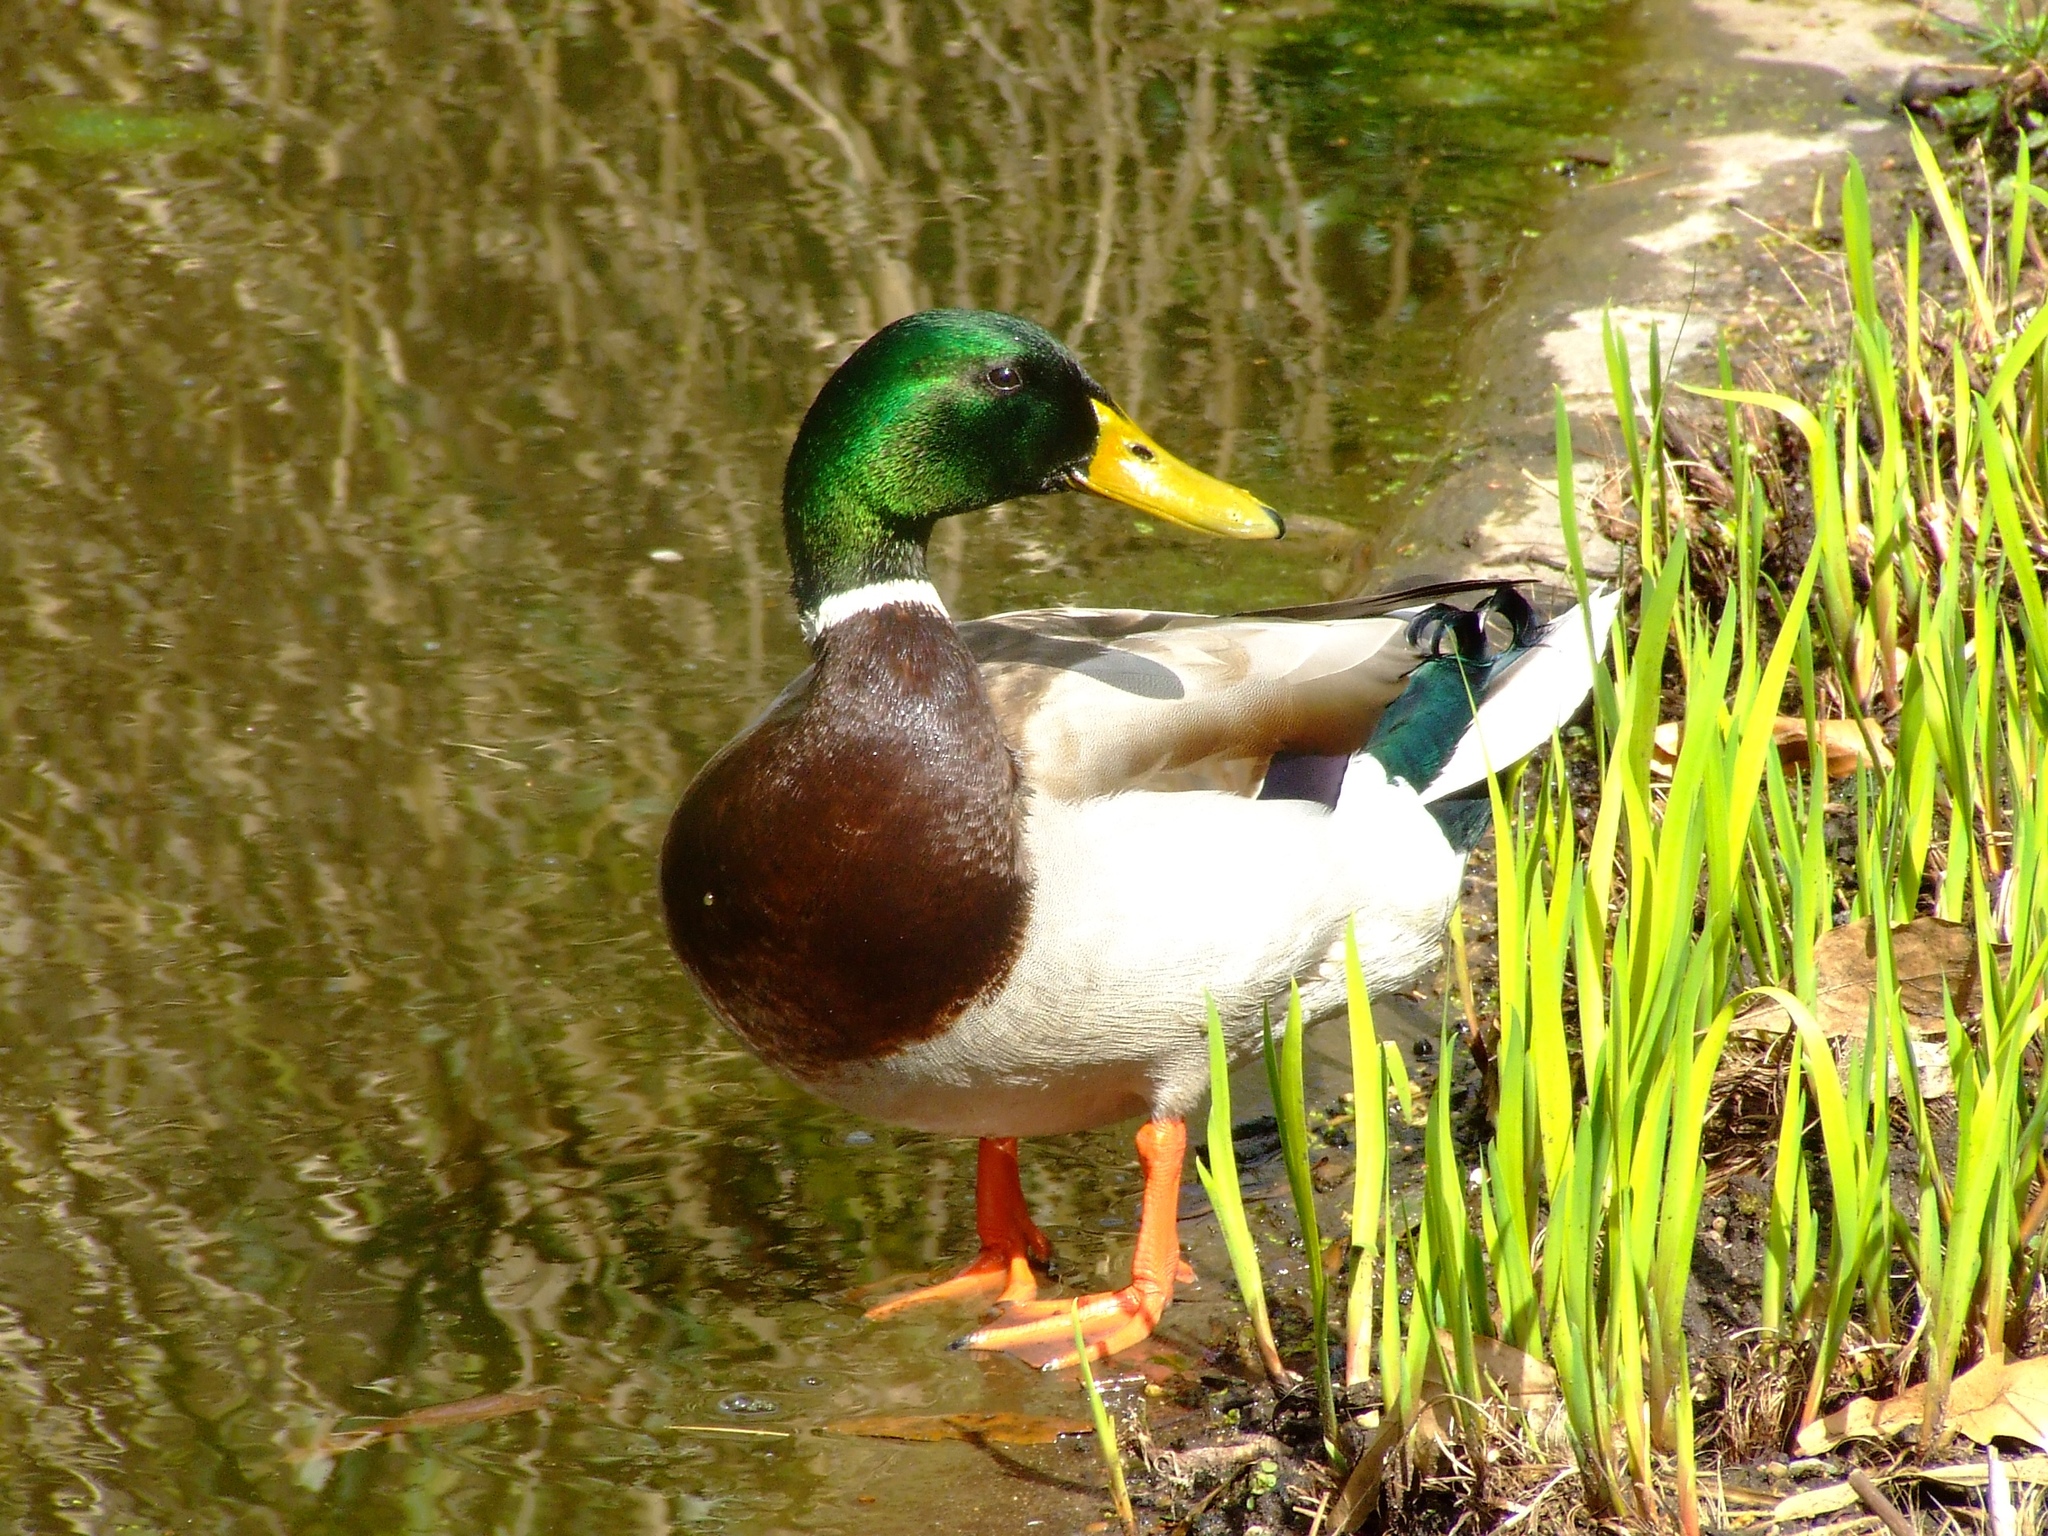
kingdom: Animalia
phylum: Chordata
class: Aves
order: Anseriformes
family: Anatidae
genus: Anas
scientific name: Anas platyrhynchos
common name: Mallard
